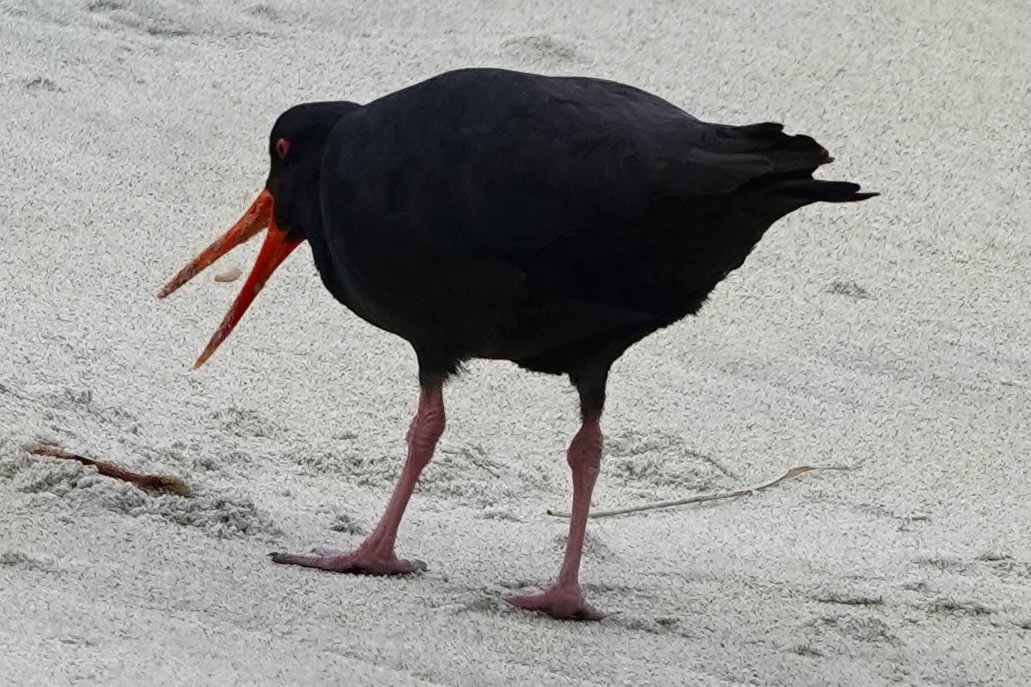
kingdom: Animalia
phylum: Chordata
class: Aves
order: Charadriiformes
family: Haematopodidae
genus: Haematopus
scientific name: Haematopus unicolor
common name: Variable oystercatcher
